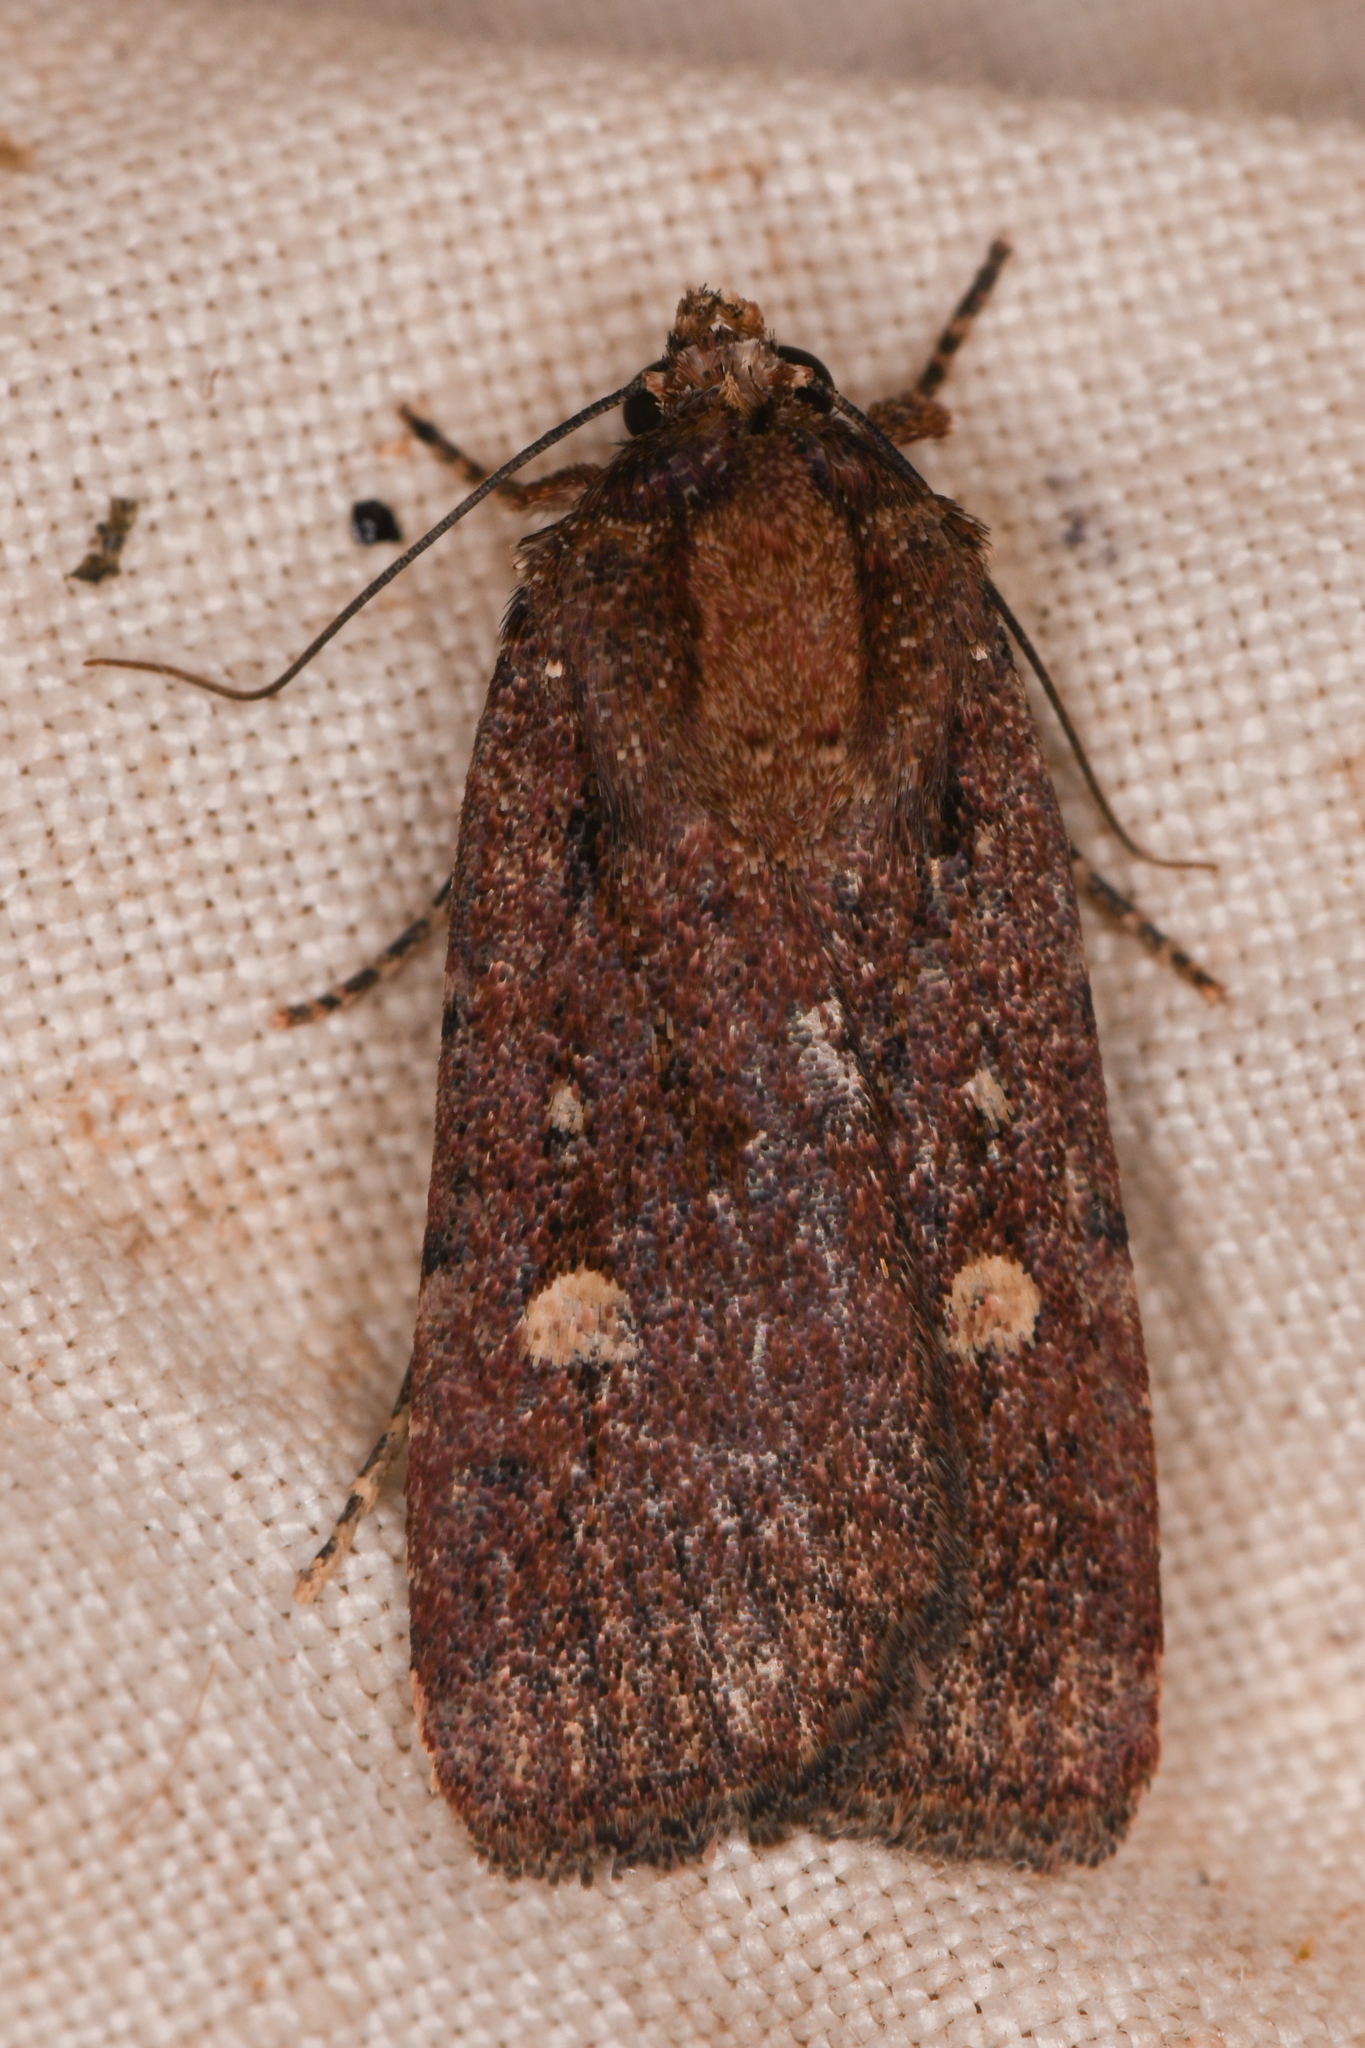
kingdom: Animalia
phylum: Arthropoda
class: Insecta
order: Lepidoptera
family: Noctuidae
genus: Abagrotis
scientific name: Abagrotis rubricundis
